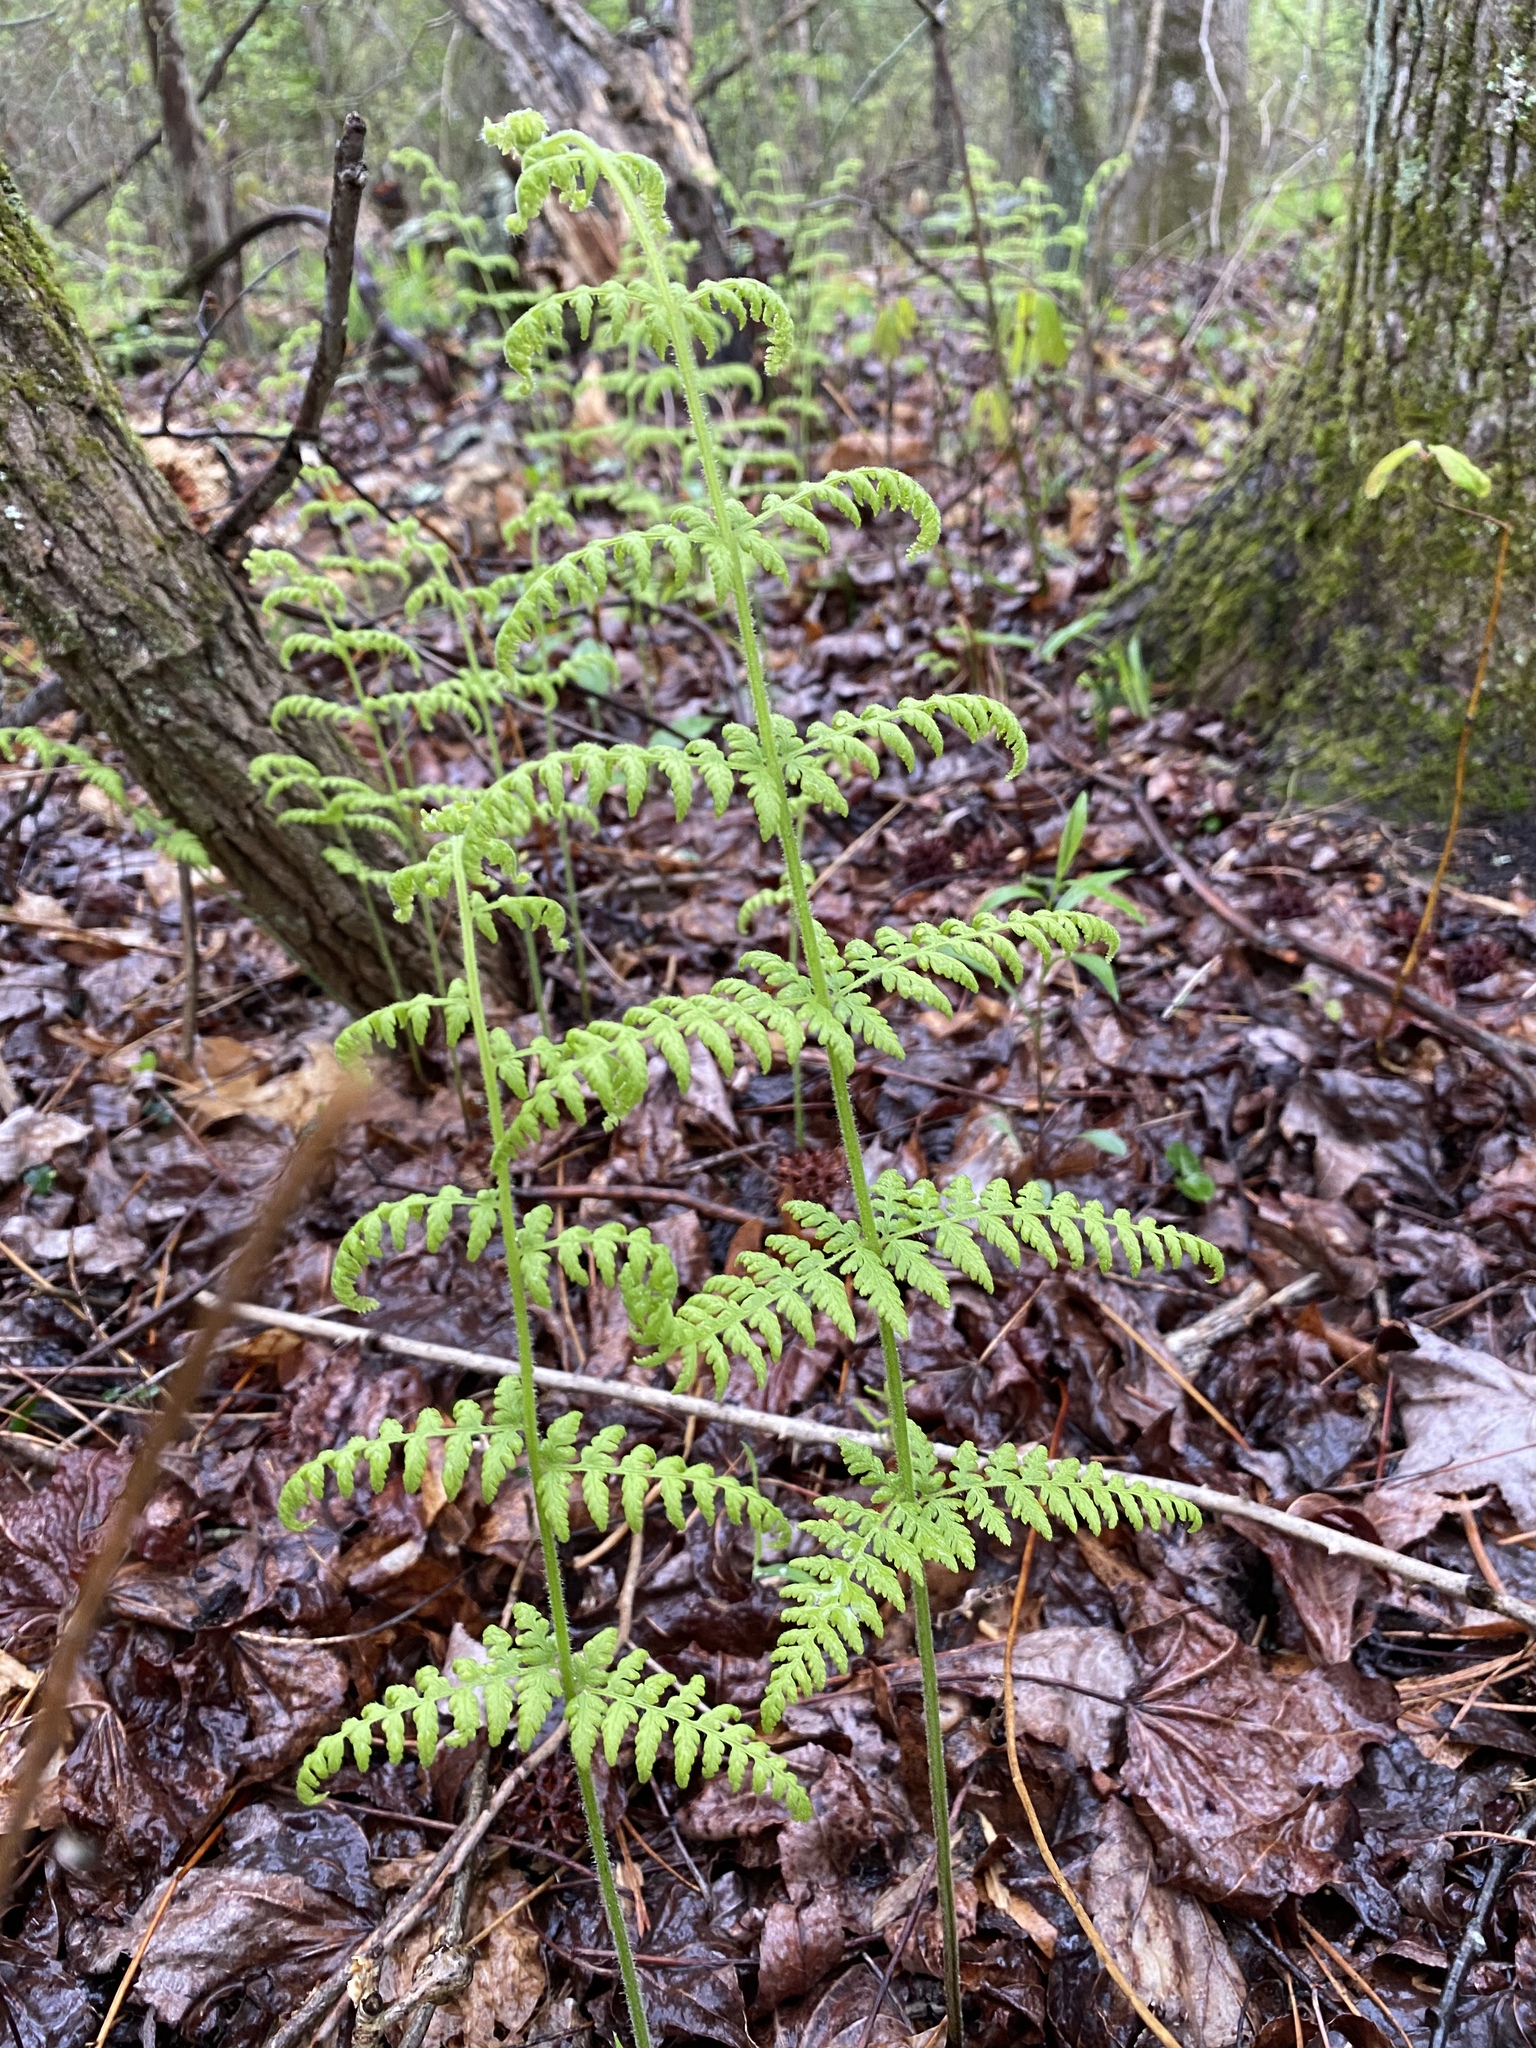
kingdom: Plantae
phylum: Tracheophyta
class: Polypodiopsida
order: Polypodiales
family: Dennstaedtiaceae
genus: Sitobolium
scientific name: Sitobolium punctilobum
